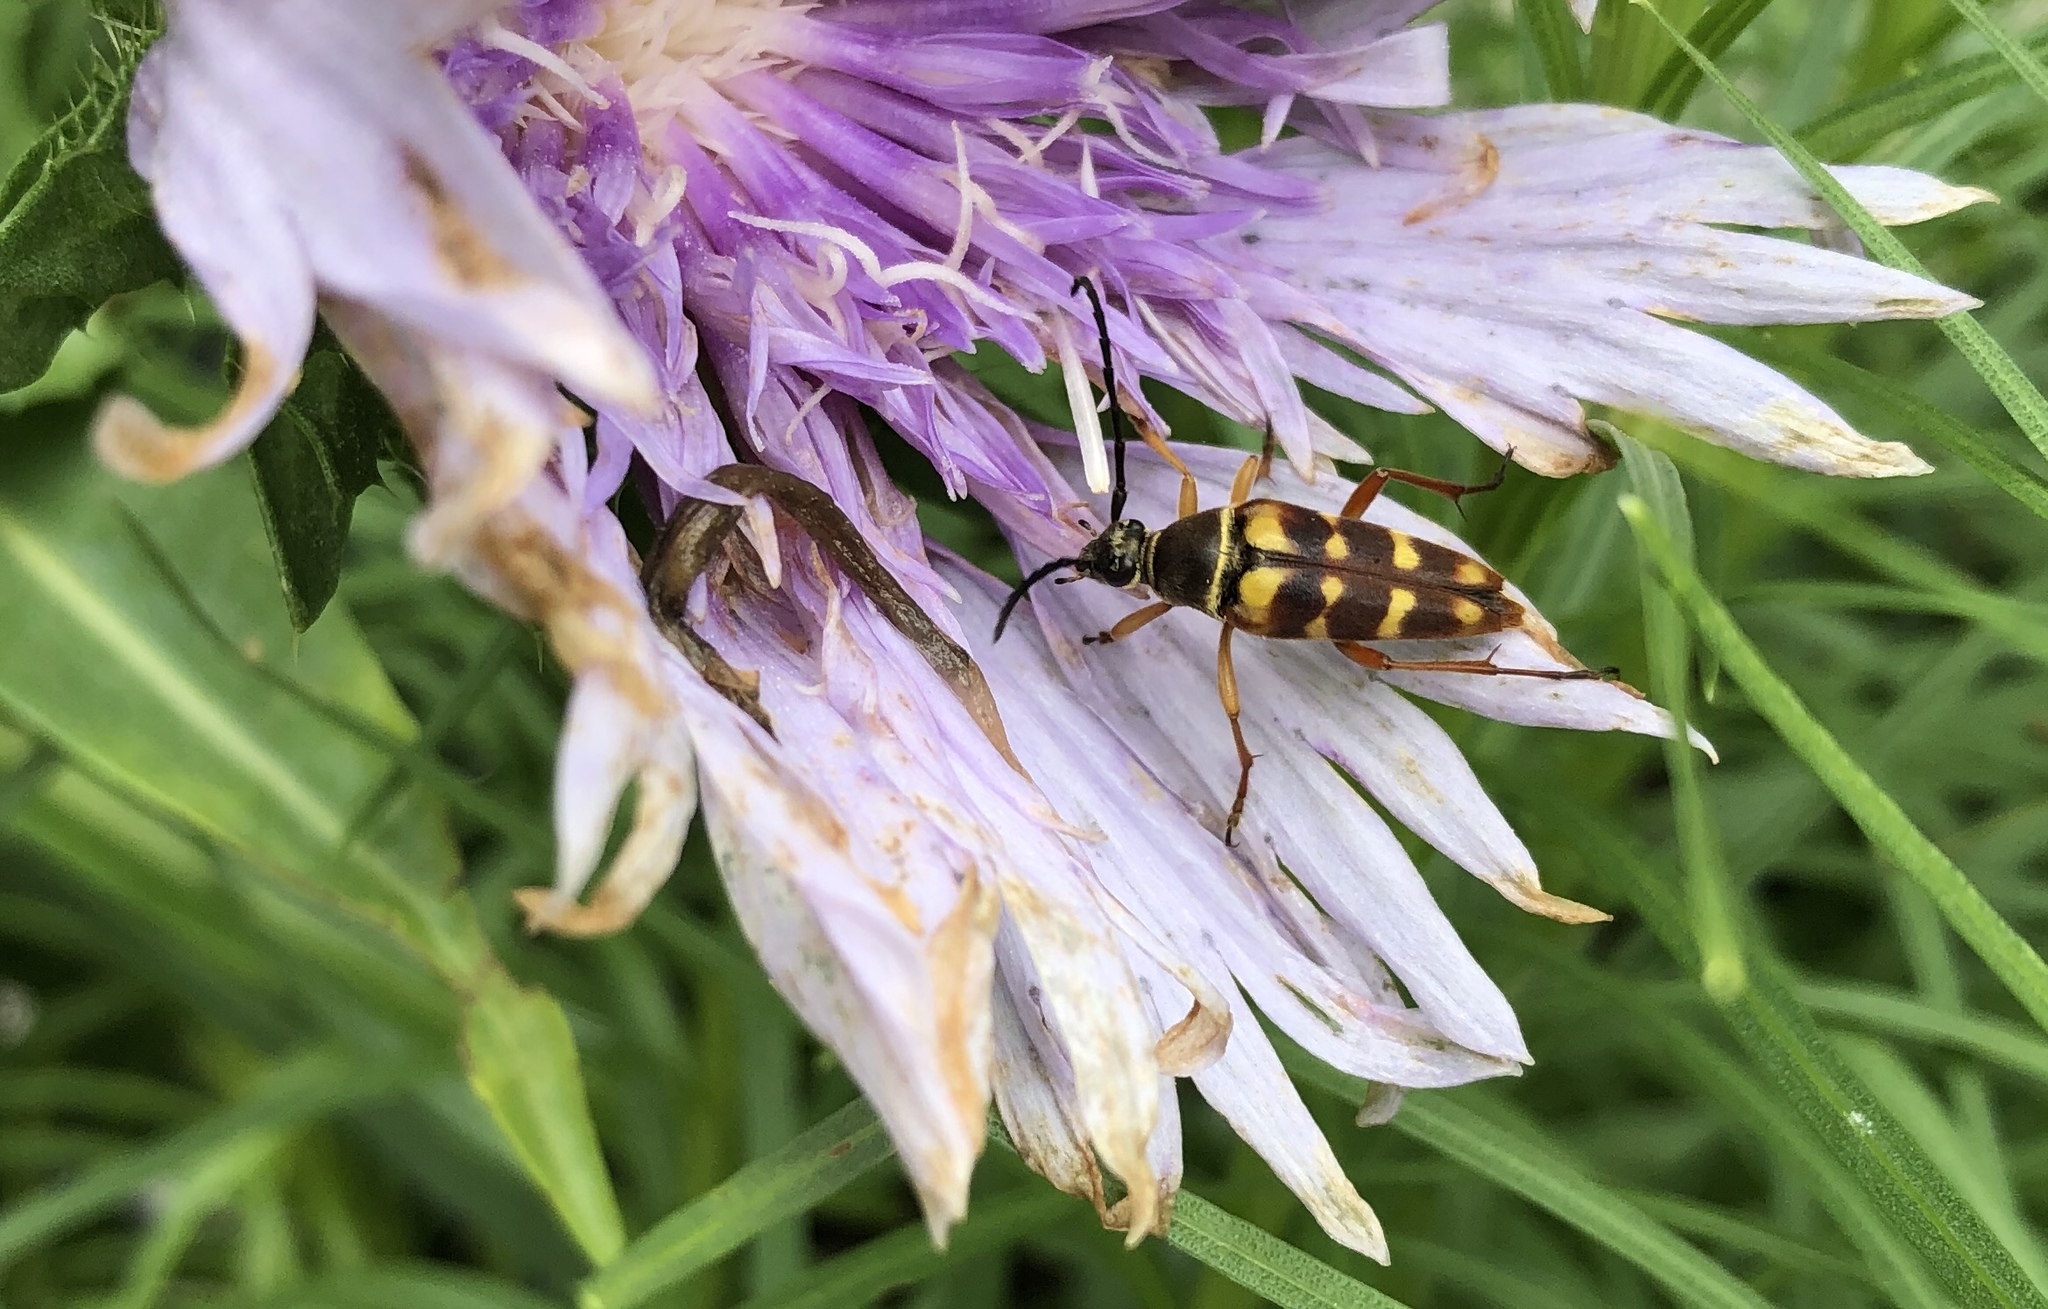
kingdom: Animalia
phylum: Arthropoda
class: Insecta
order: Coleoptera
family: Cerambycidae
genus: Typocerus
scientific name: Typocerus velutinus
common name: Banded longhorn beetle
